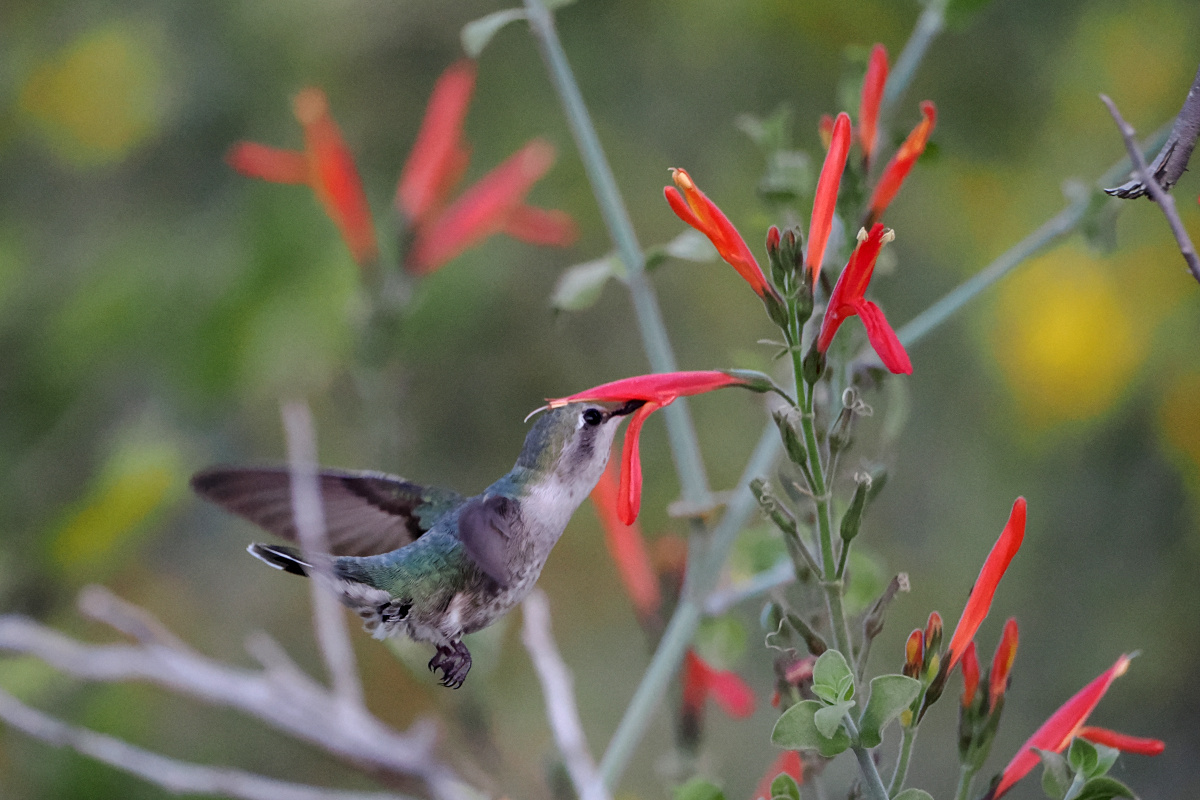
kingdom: Animalia
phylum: Chordata
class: Aves
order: Apodiformes
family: Trochilidae
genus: Calypte
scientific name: Calypte costae
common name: Costa's hummingbird
